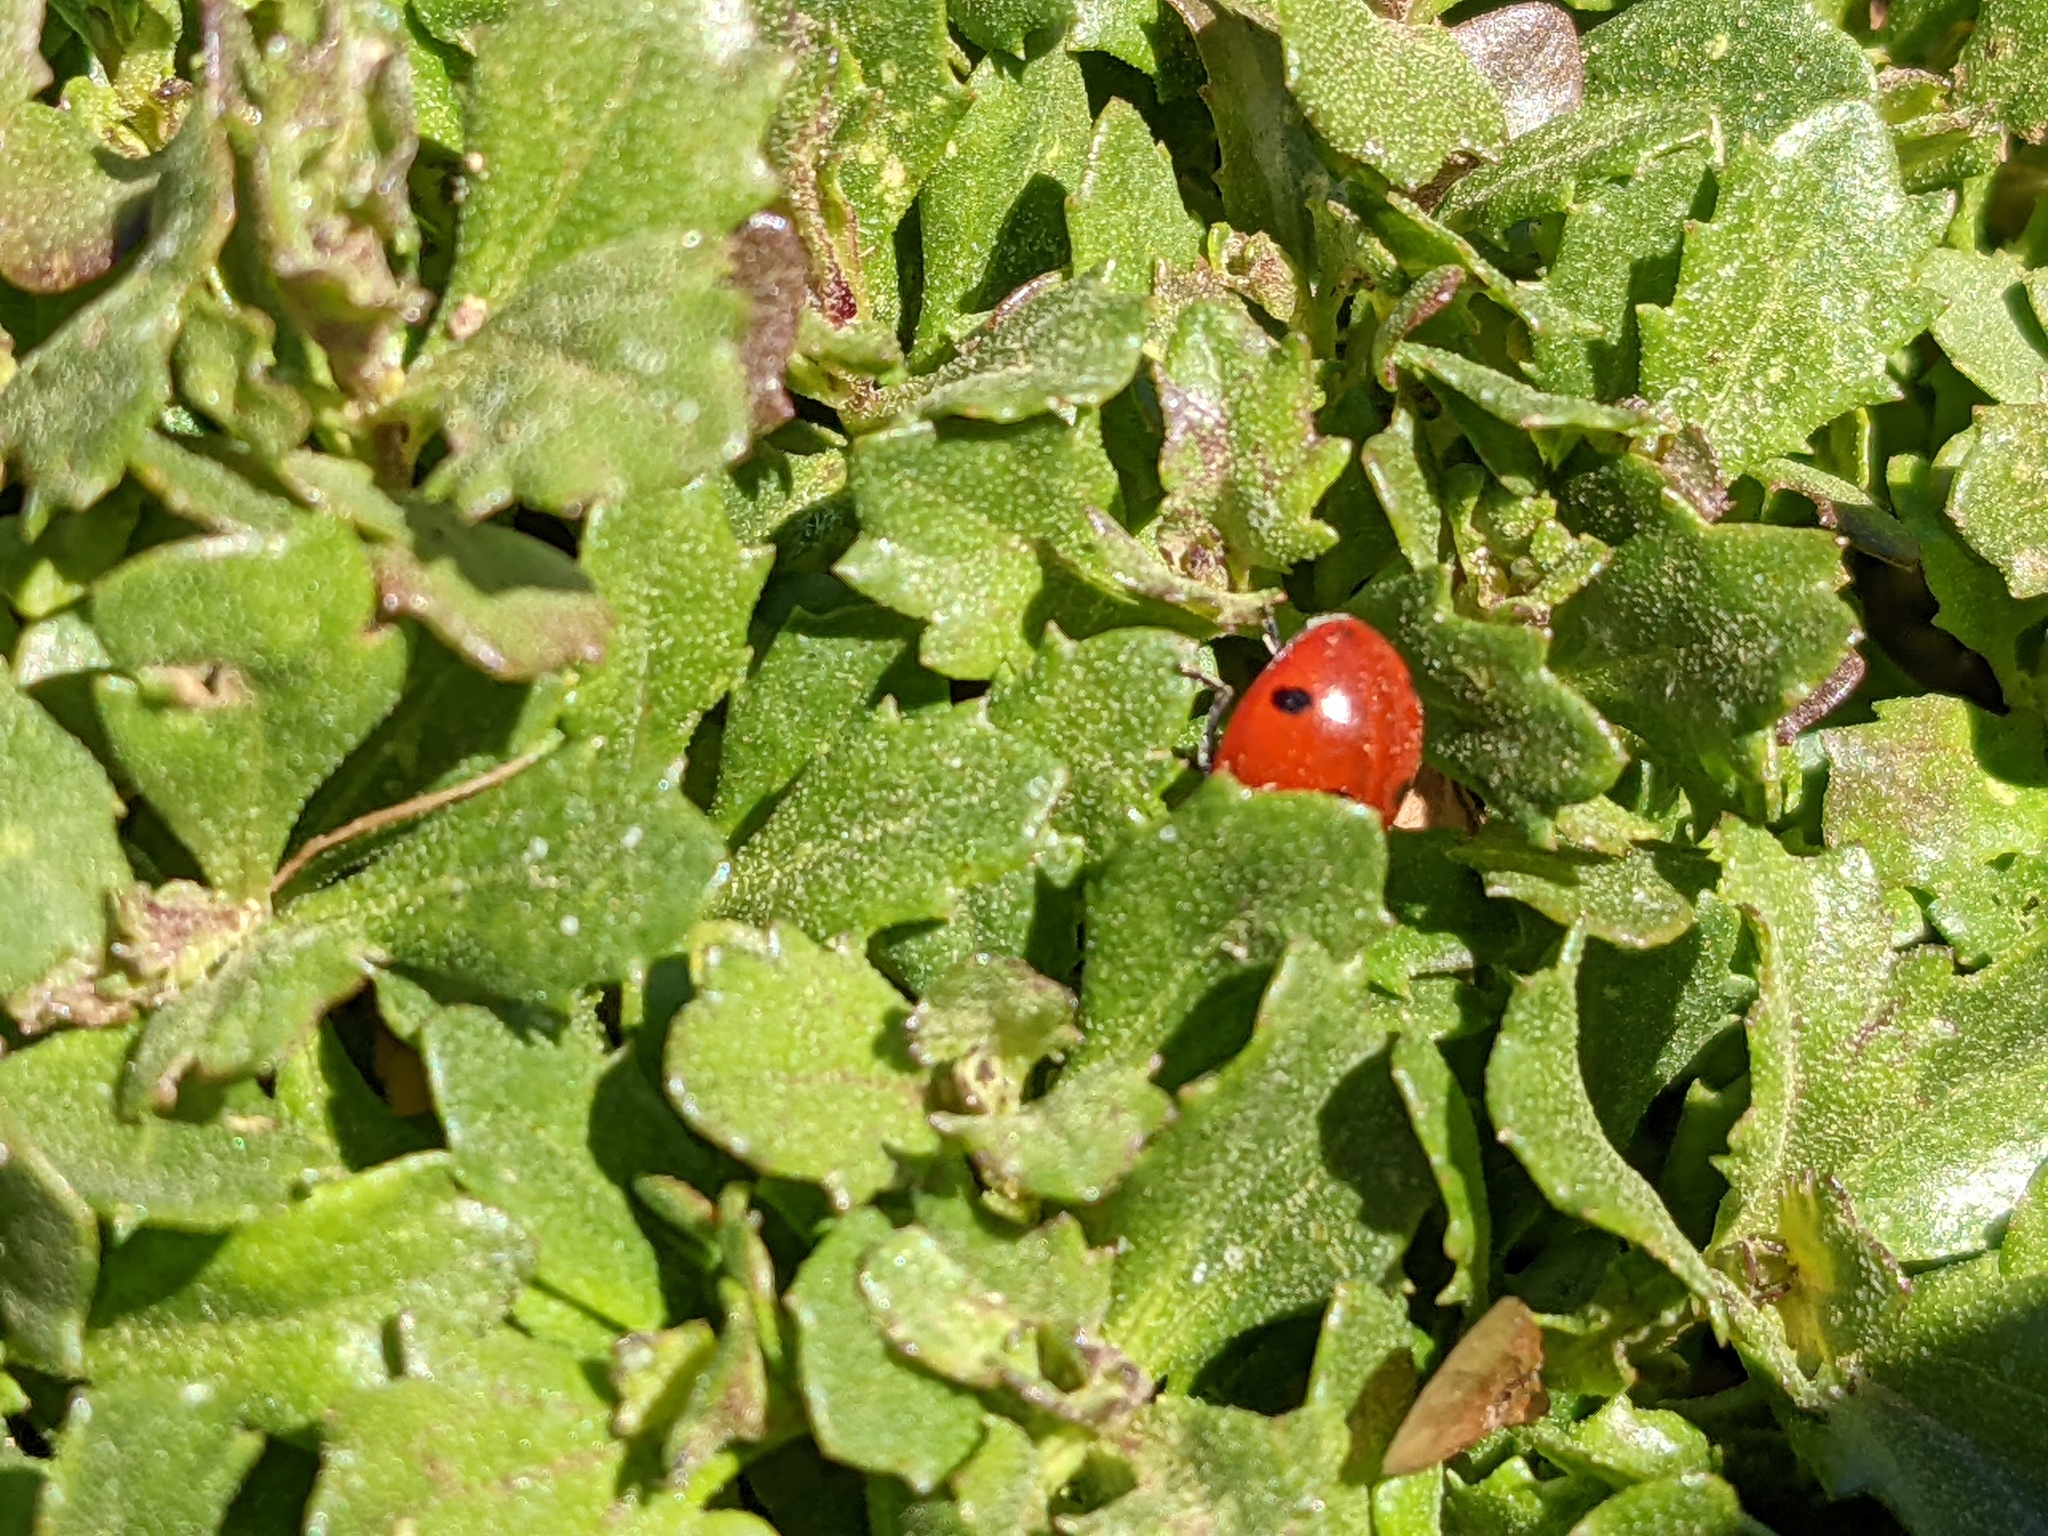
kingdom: Animalia
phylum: Arthropoda
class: Insecta
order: Coleoptera
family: Coccinellidae
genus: Coccinella
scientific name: Coccinella septempunctata
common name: Sevenspotted lady beetle
